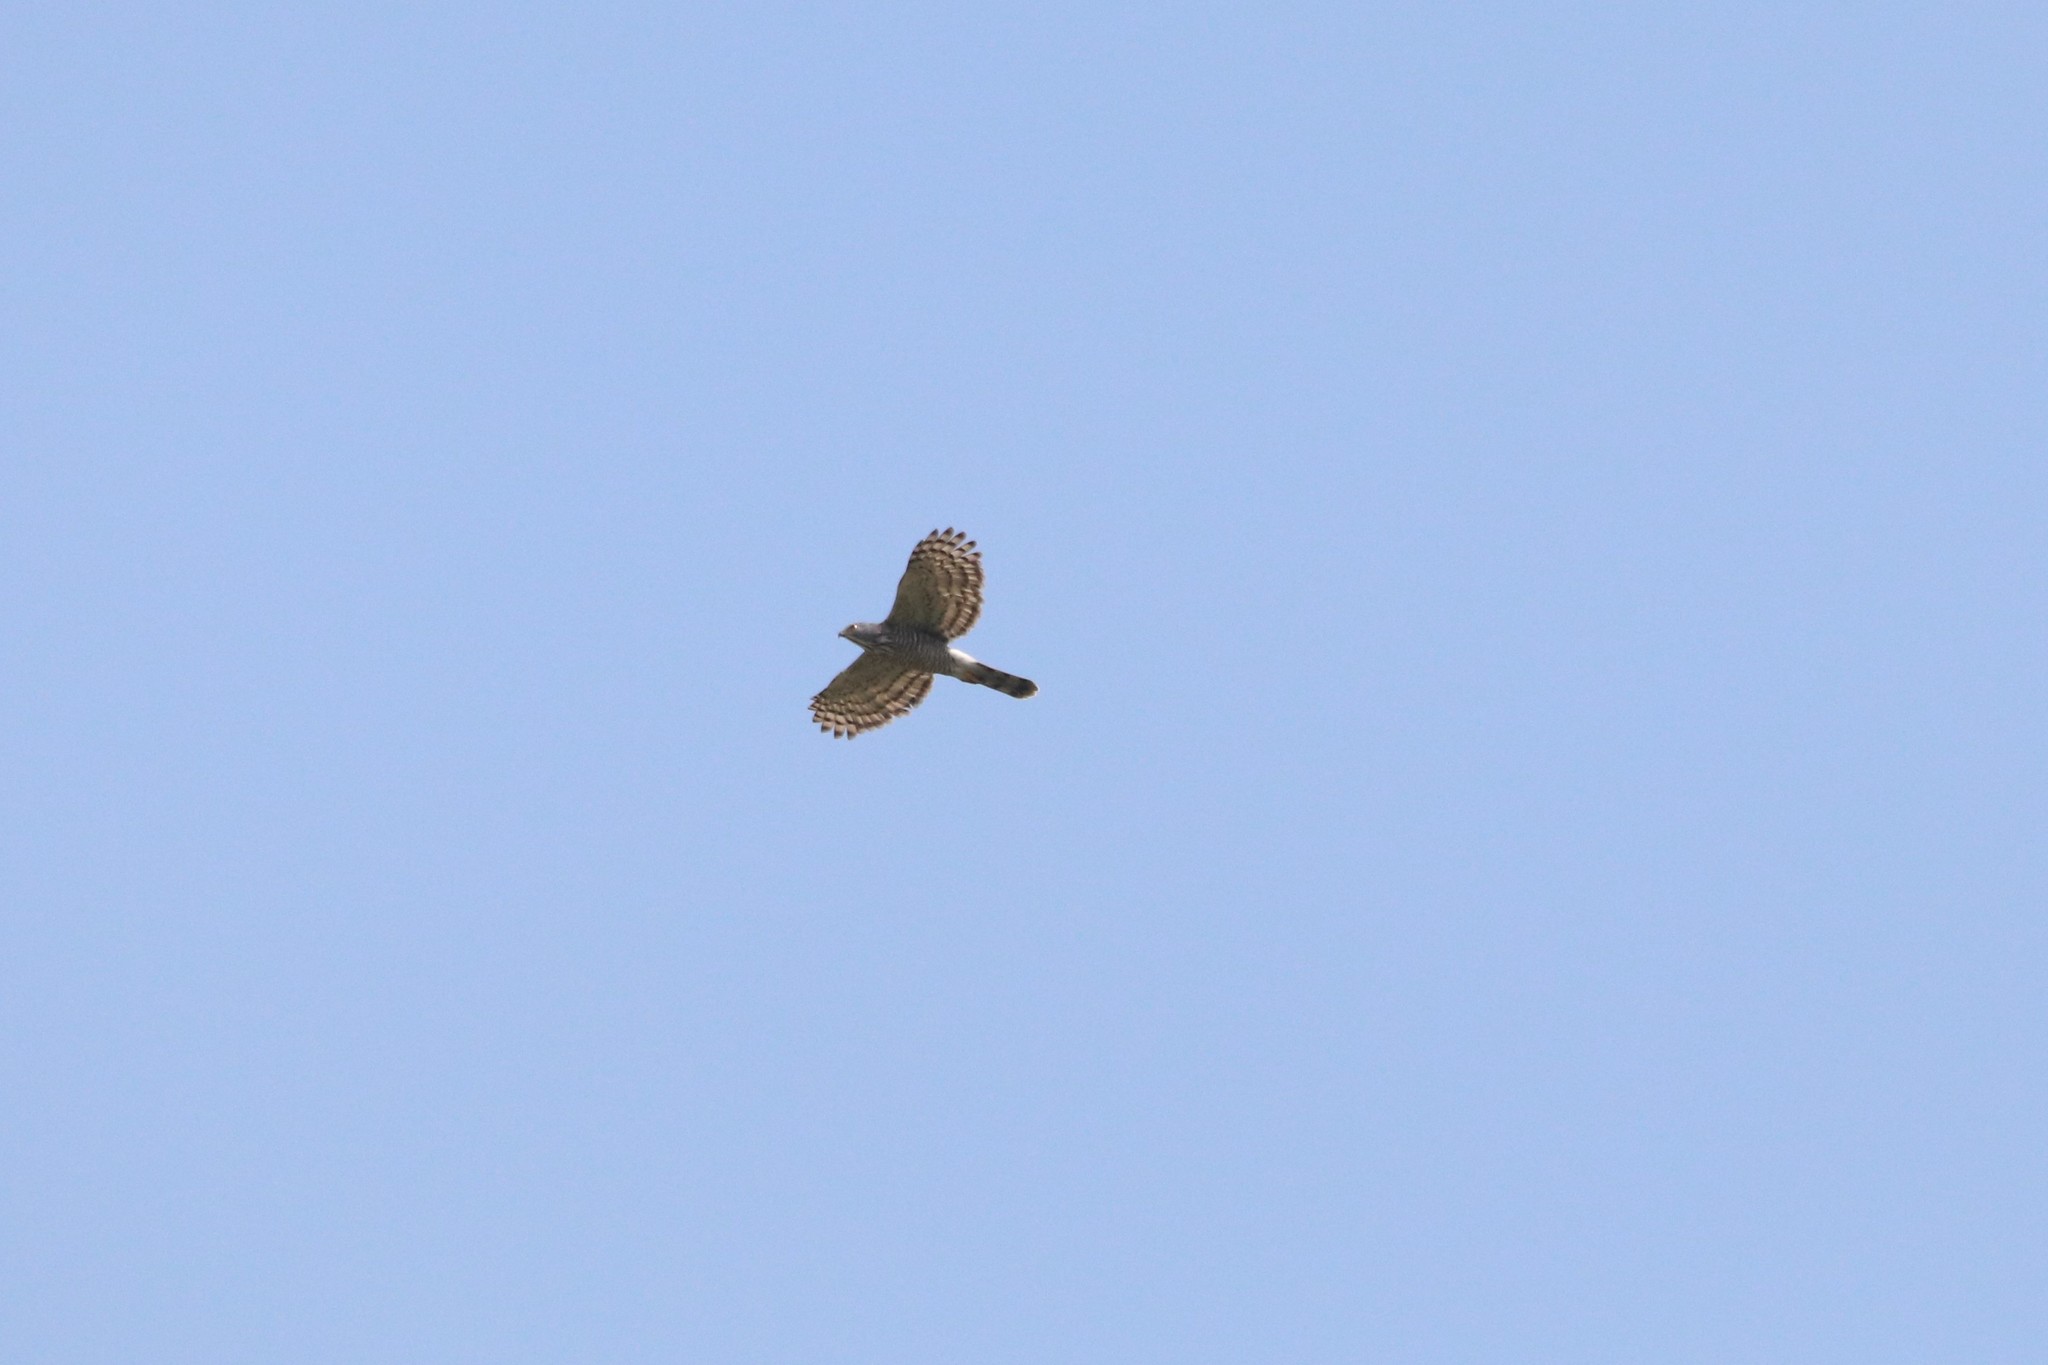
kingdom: Animalia
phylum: Chordata
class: Aves
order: Accipitriformes
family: Accipitridae
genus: Accipiter
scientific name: Accipiter trivirgatus
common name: Crested goshawk
